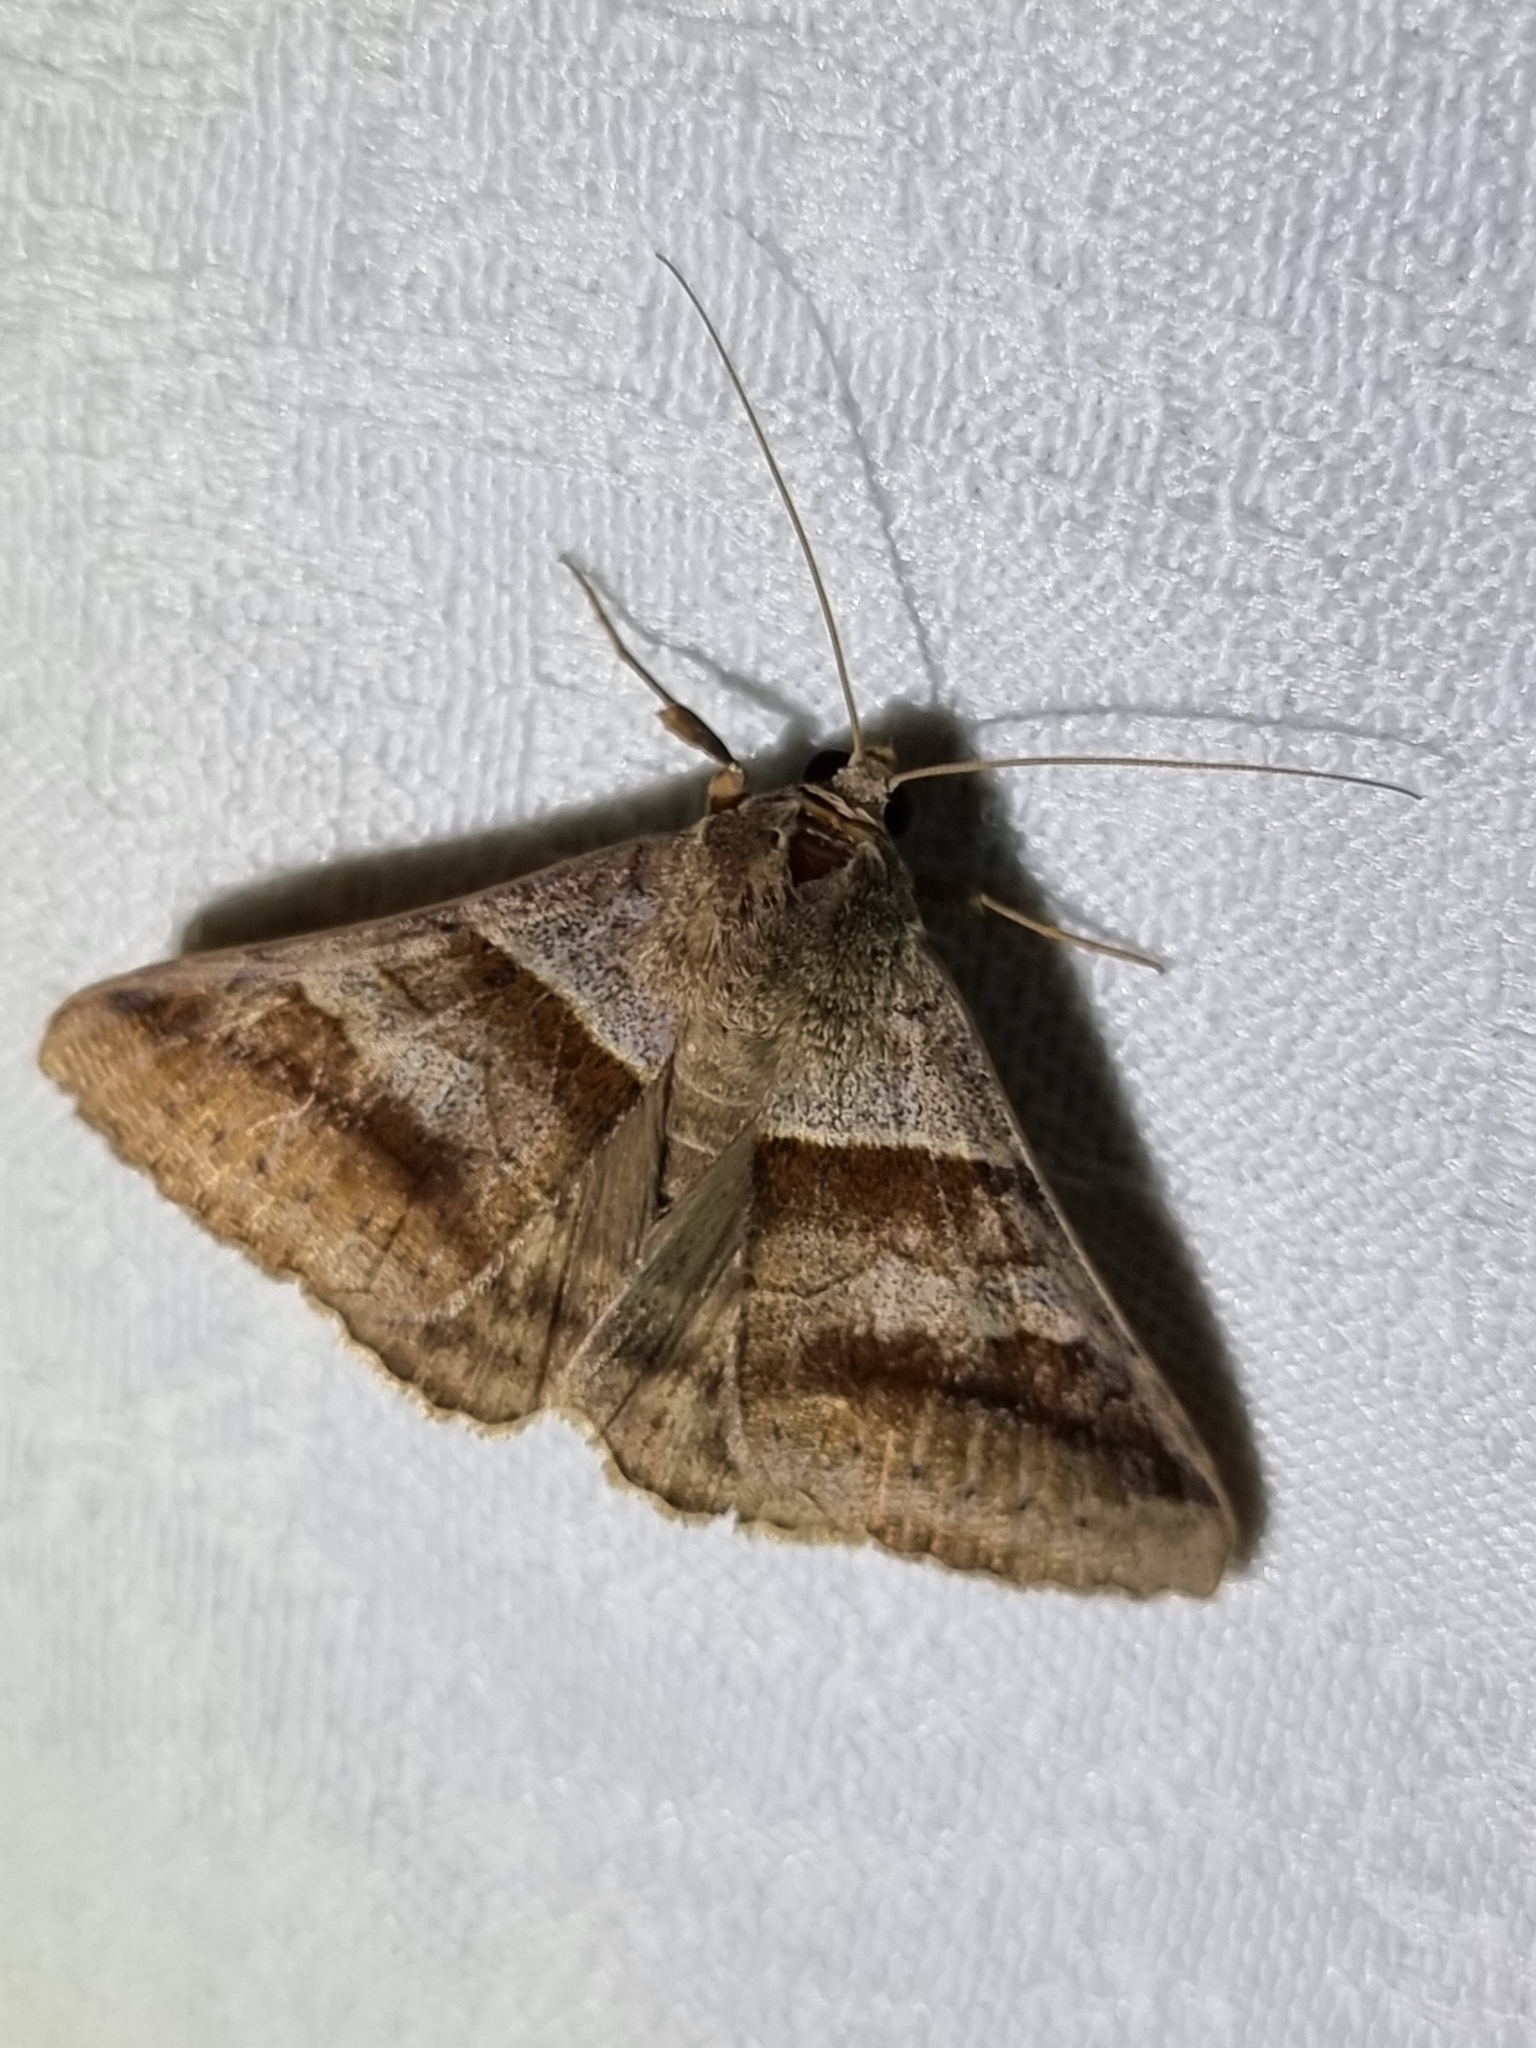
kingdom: Animalia
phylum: Arthropoda
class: Insecta
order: Lepidoptera
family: Erebidae
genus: Mocis
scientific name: Mocis trifasciata
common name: Triple-barred
